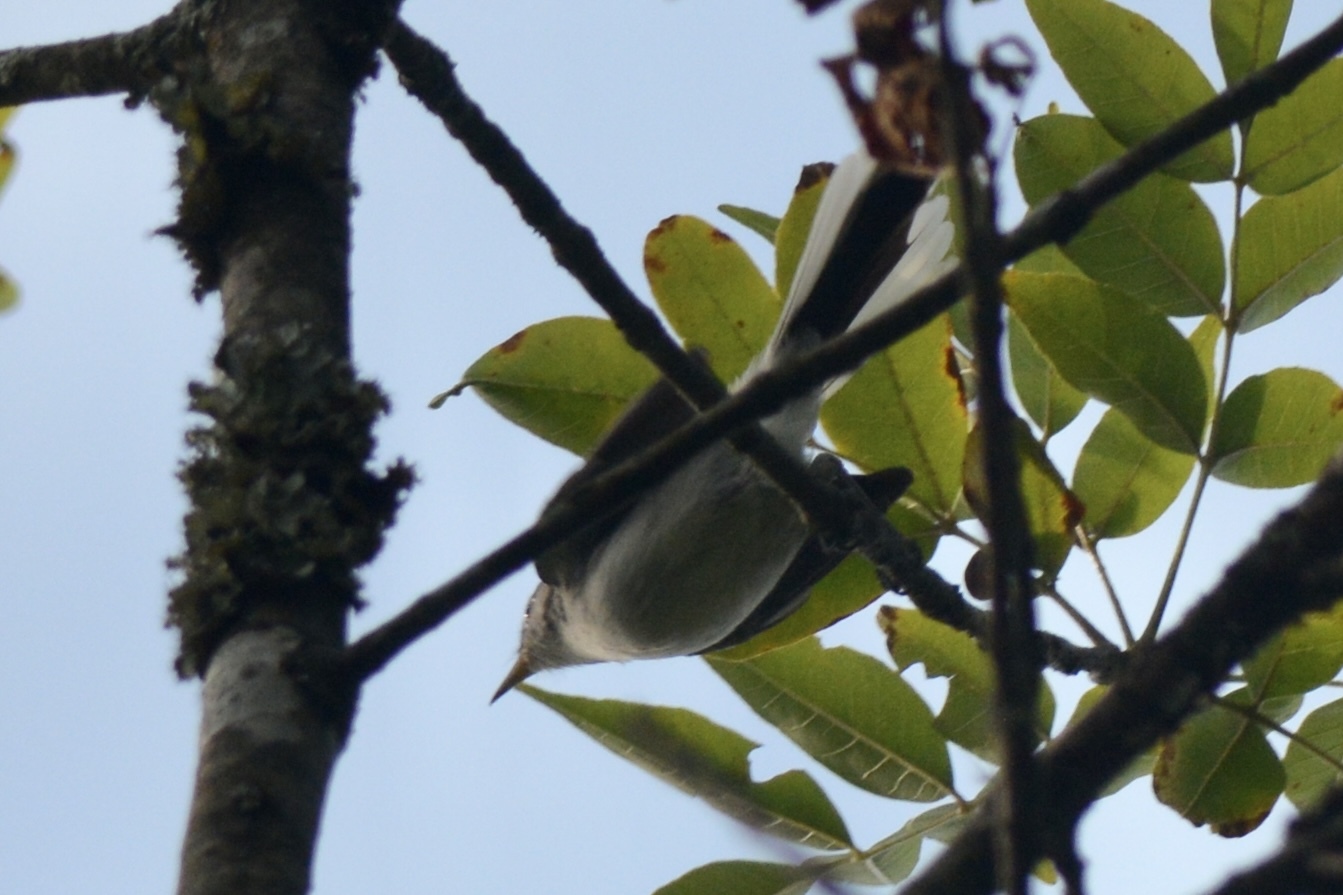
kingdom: Animalia
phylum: Chordata
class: Aves
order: Passeriformes
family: Polioptilidae
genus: Polioptila
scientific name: Polioptila caerulea
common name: Blue-gray gnatcatcher
